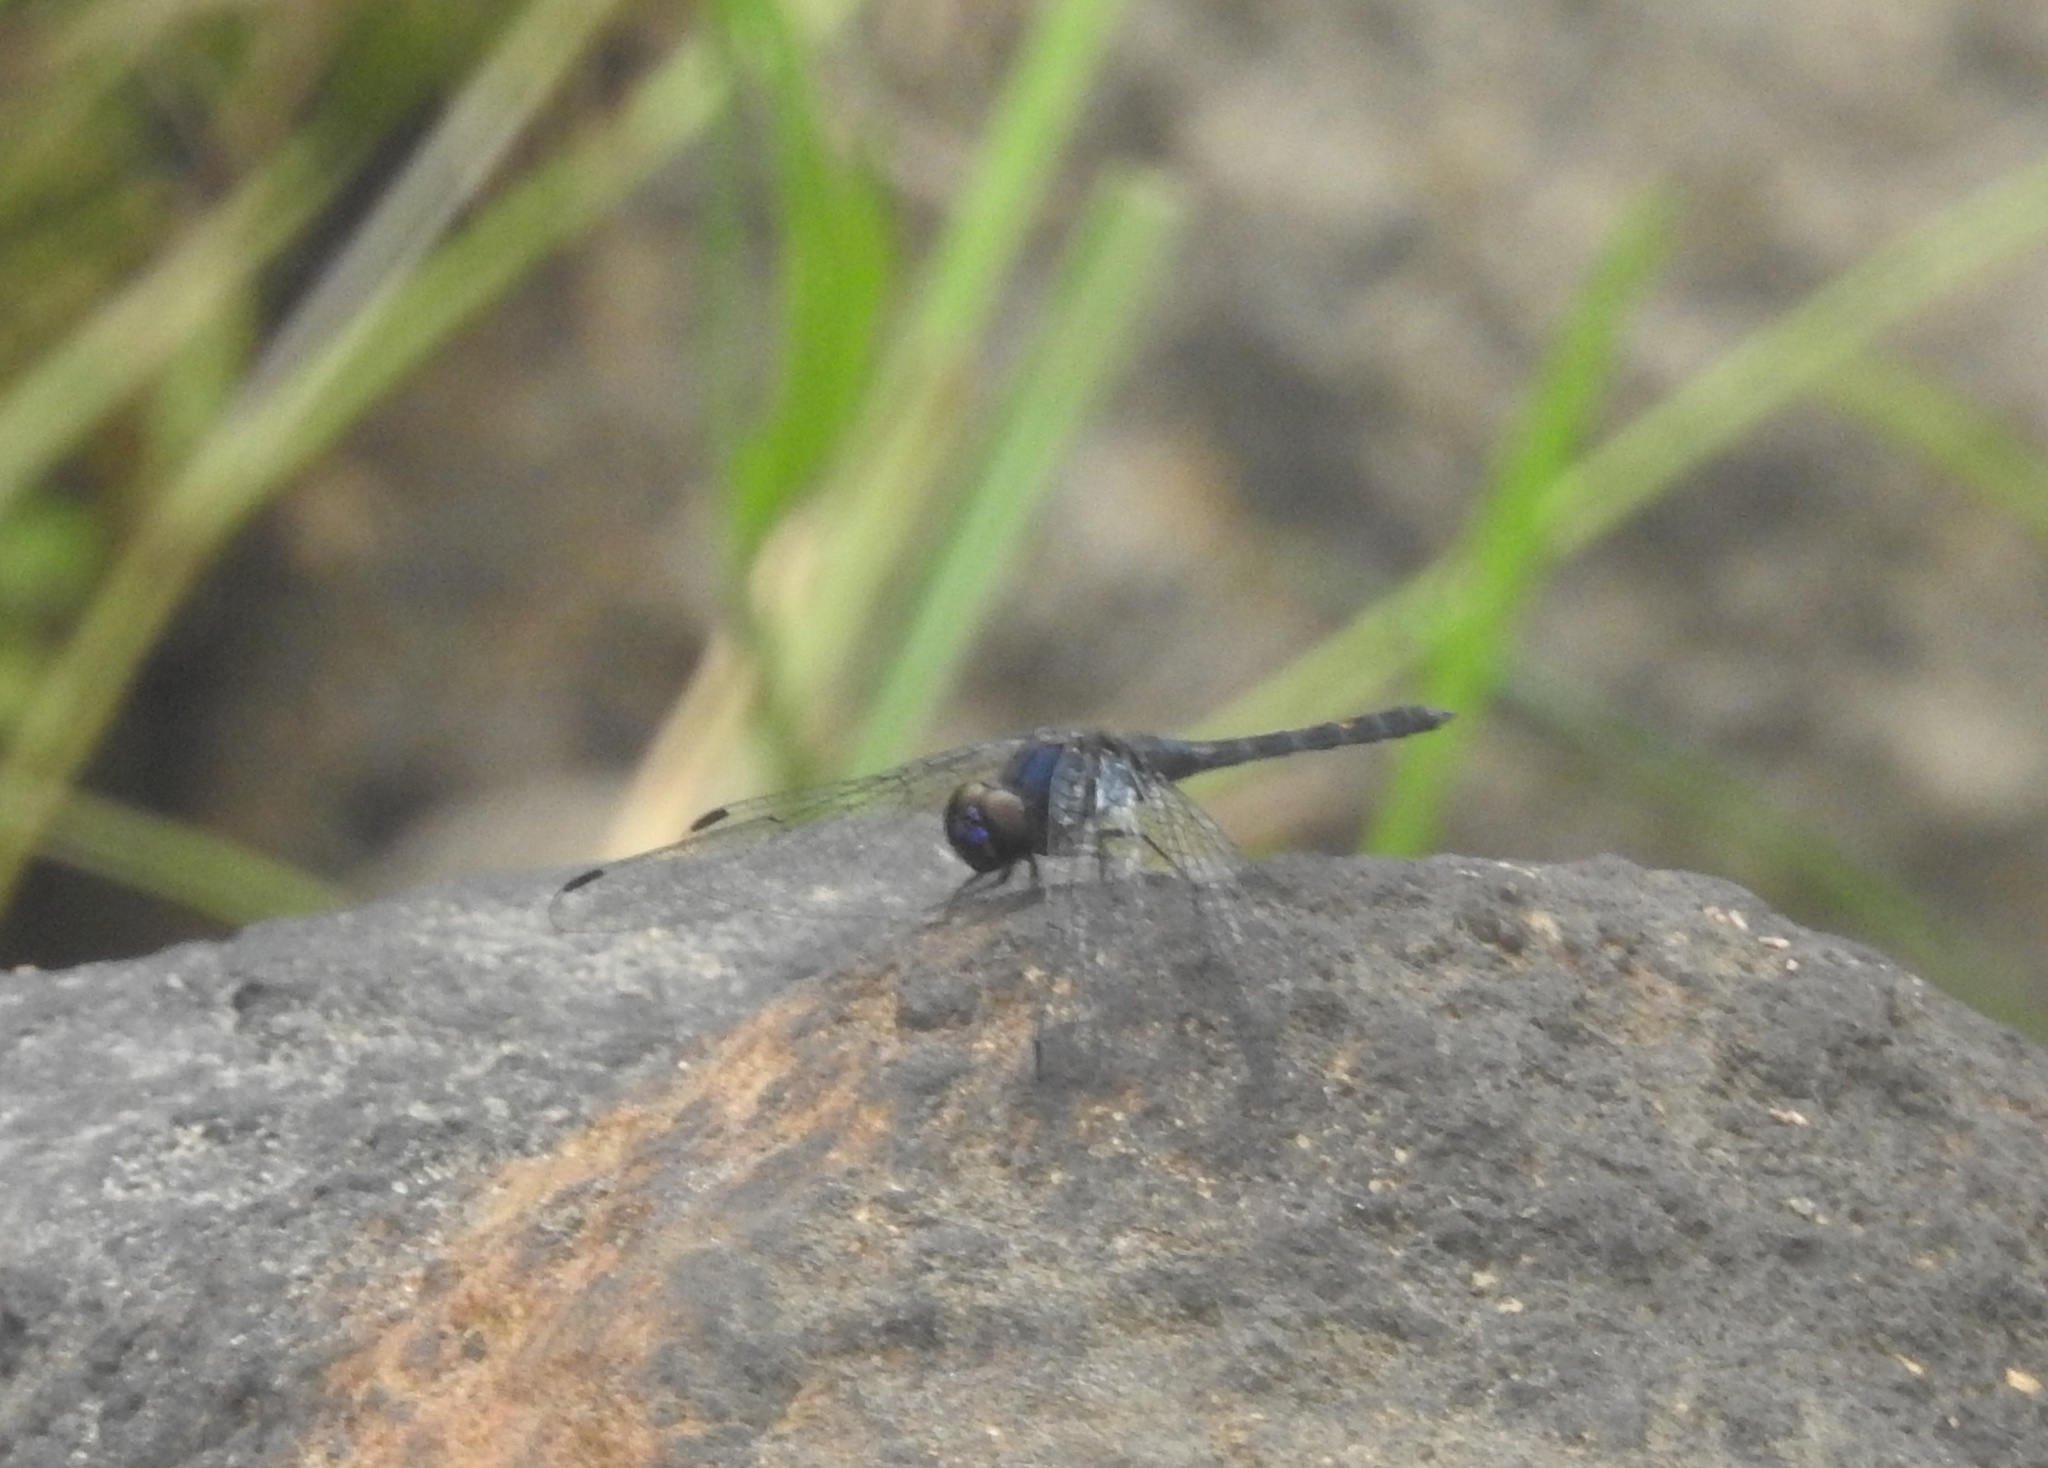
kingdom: Animalia
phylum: Arthropoda
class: Insecta
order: Odonata
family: Libellulidae
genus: Bradinopyga
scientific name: Bradinopyga geminata
